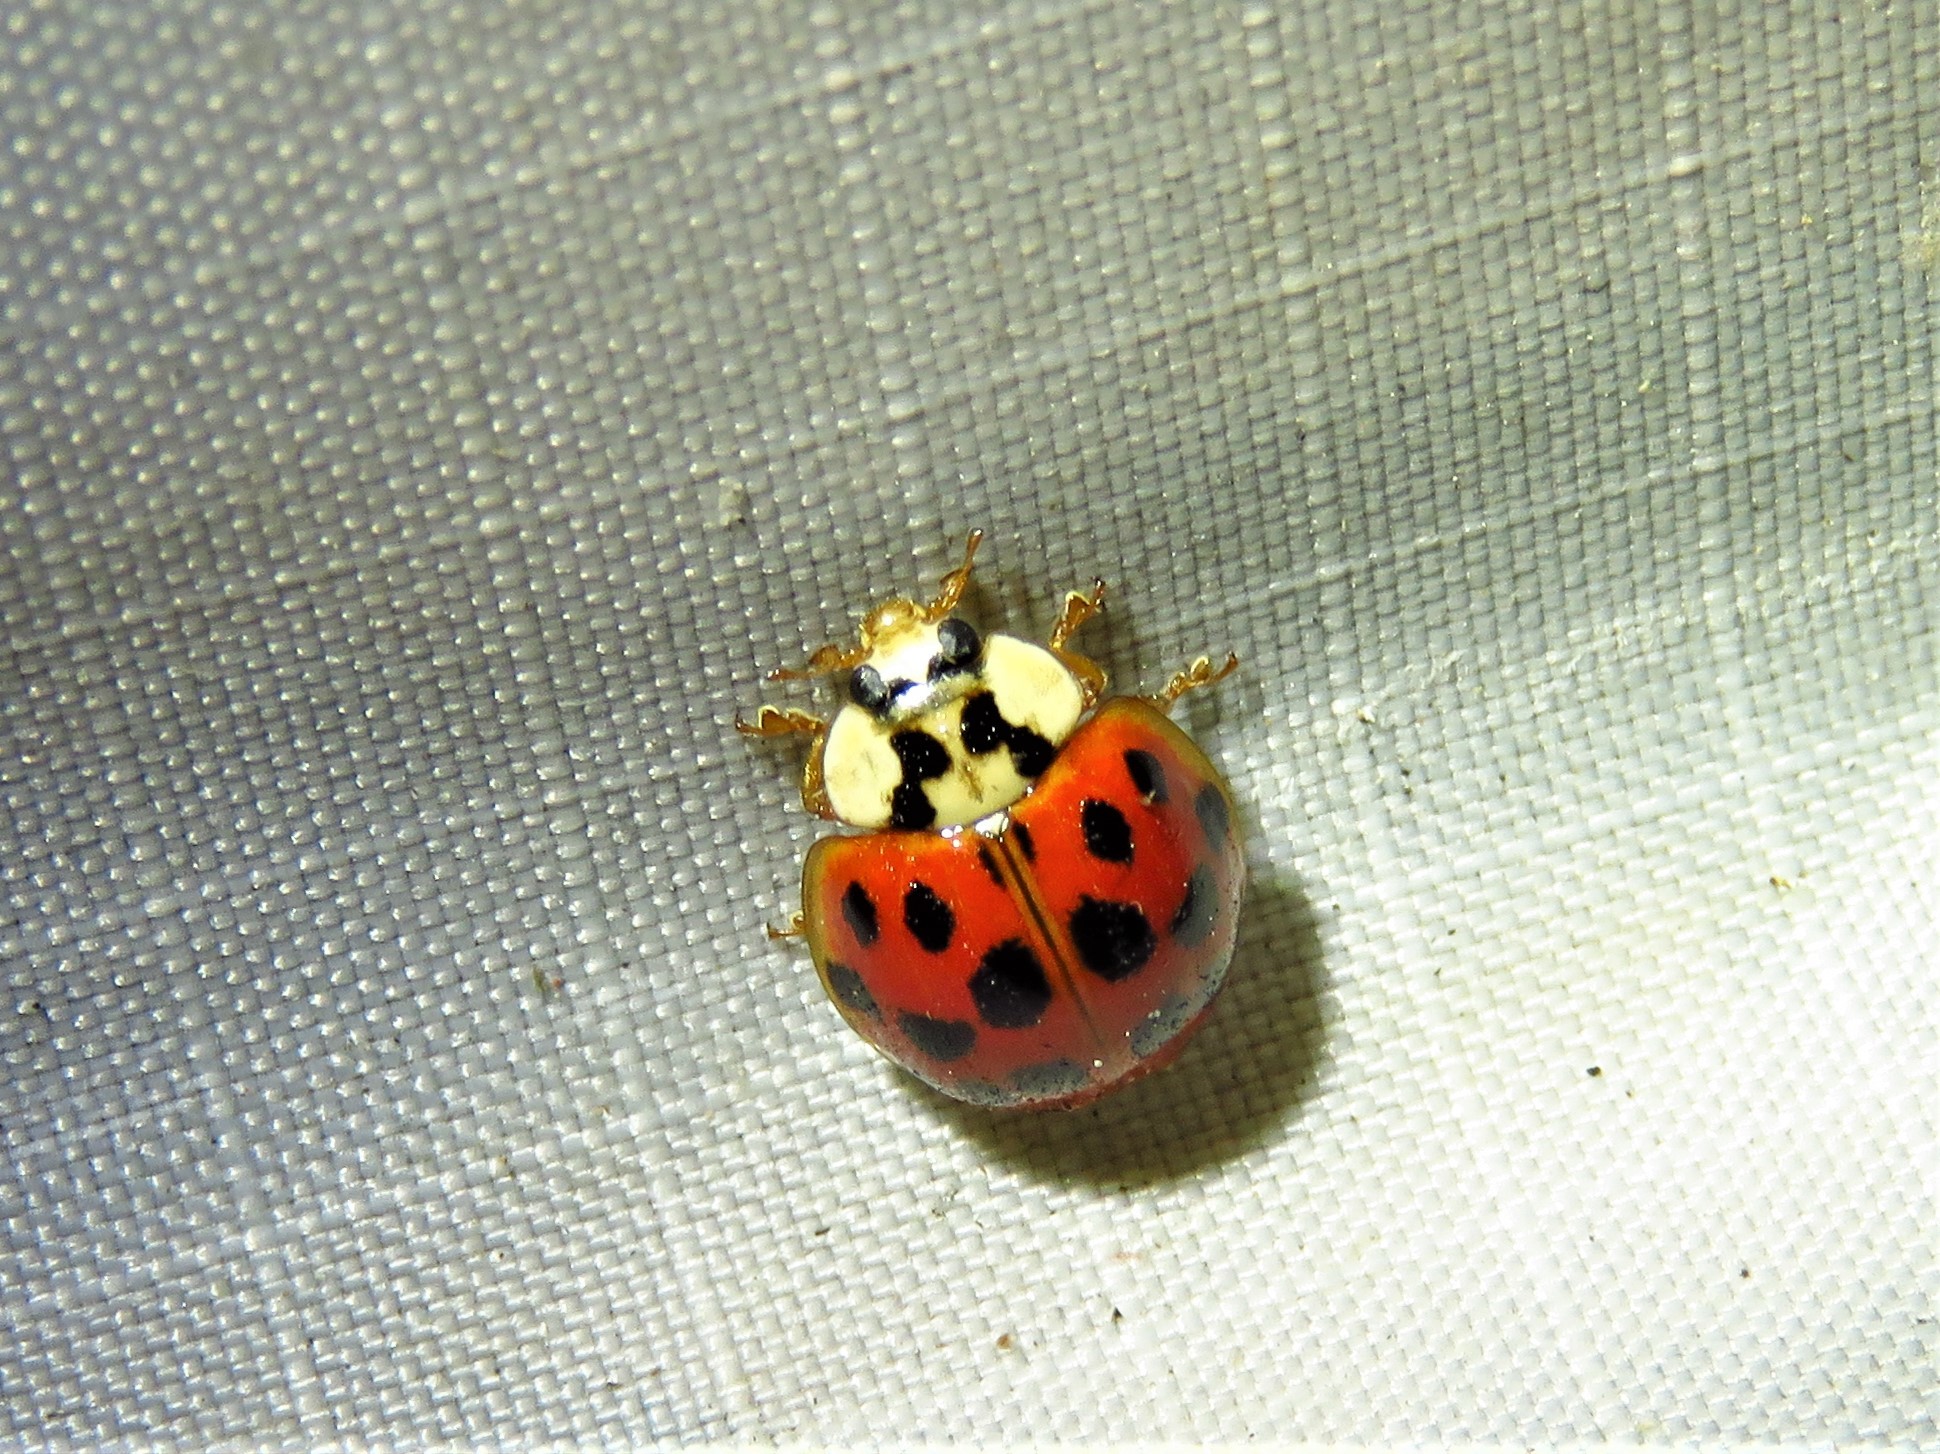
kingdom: Animalia
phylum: Arthropoda
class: Insecta
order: Coleoptera
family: Coccinellidae
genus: Harmonia
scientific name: Harmonia axyridis
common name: Harlequin ladybird
